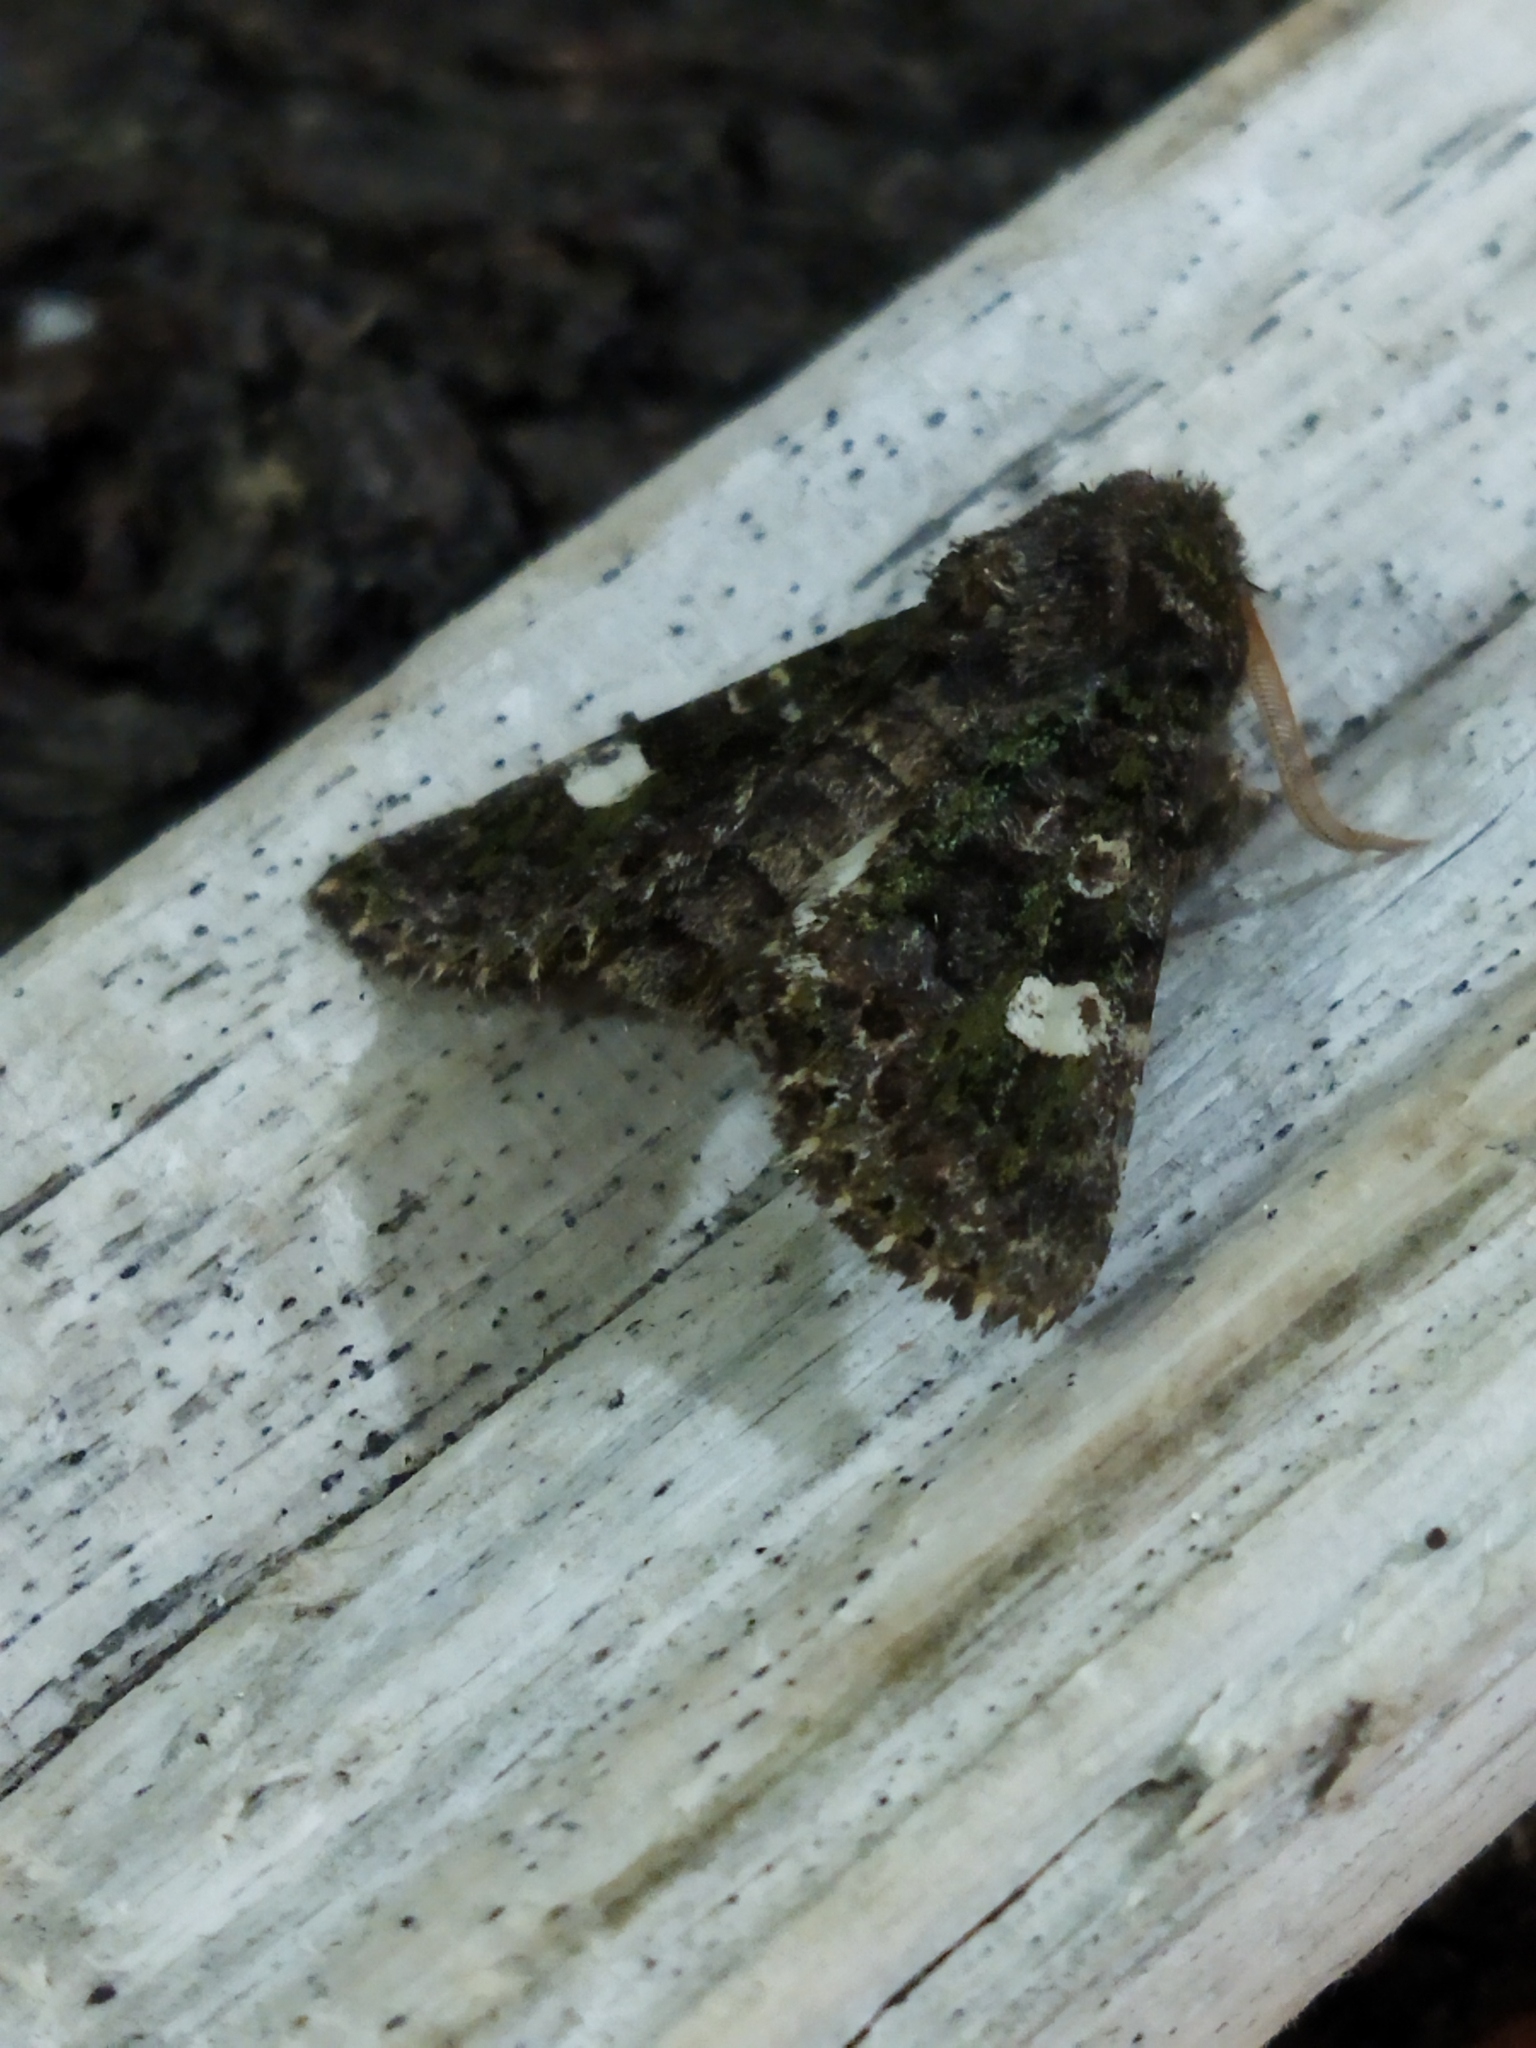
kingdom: Animalia
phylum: Arthropoda
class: Insecta
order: Lepidoptera
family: Noctuidae
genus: Valeria
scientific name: Valeria oleagina
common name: Green-brindled dot
